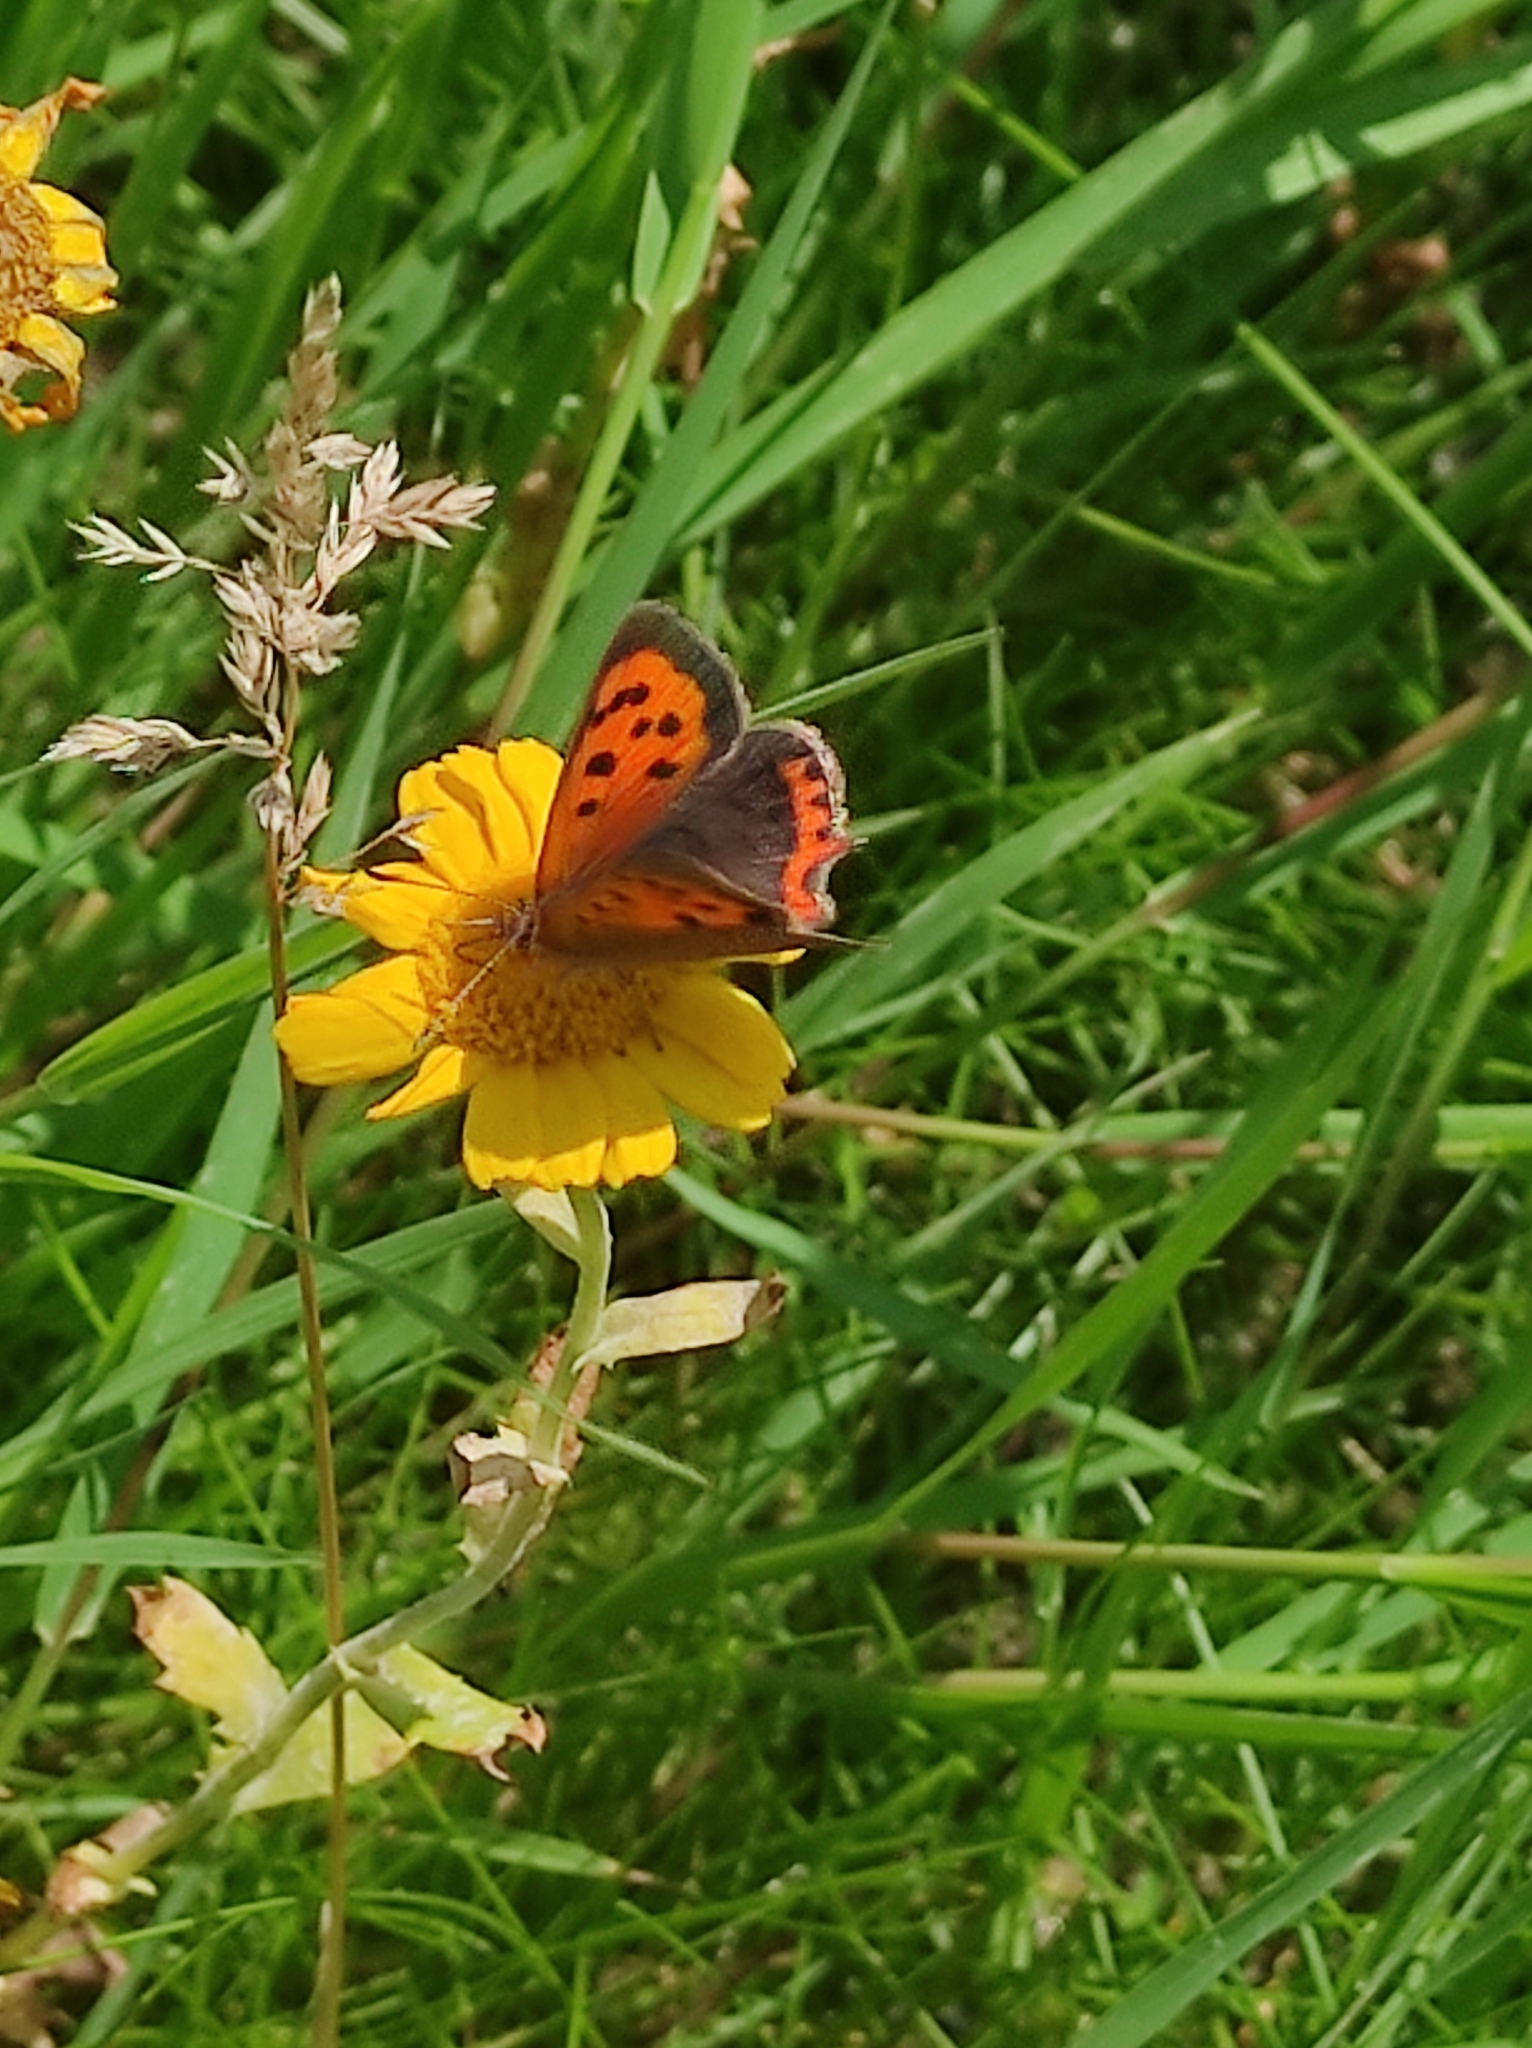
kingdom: Animalia
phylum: Arthropoda
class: Insecta
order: Lepidoptera
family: Lycaenidae
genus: Lycaena
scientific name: Lycaena phlaeas
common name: Small copper
